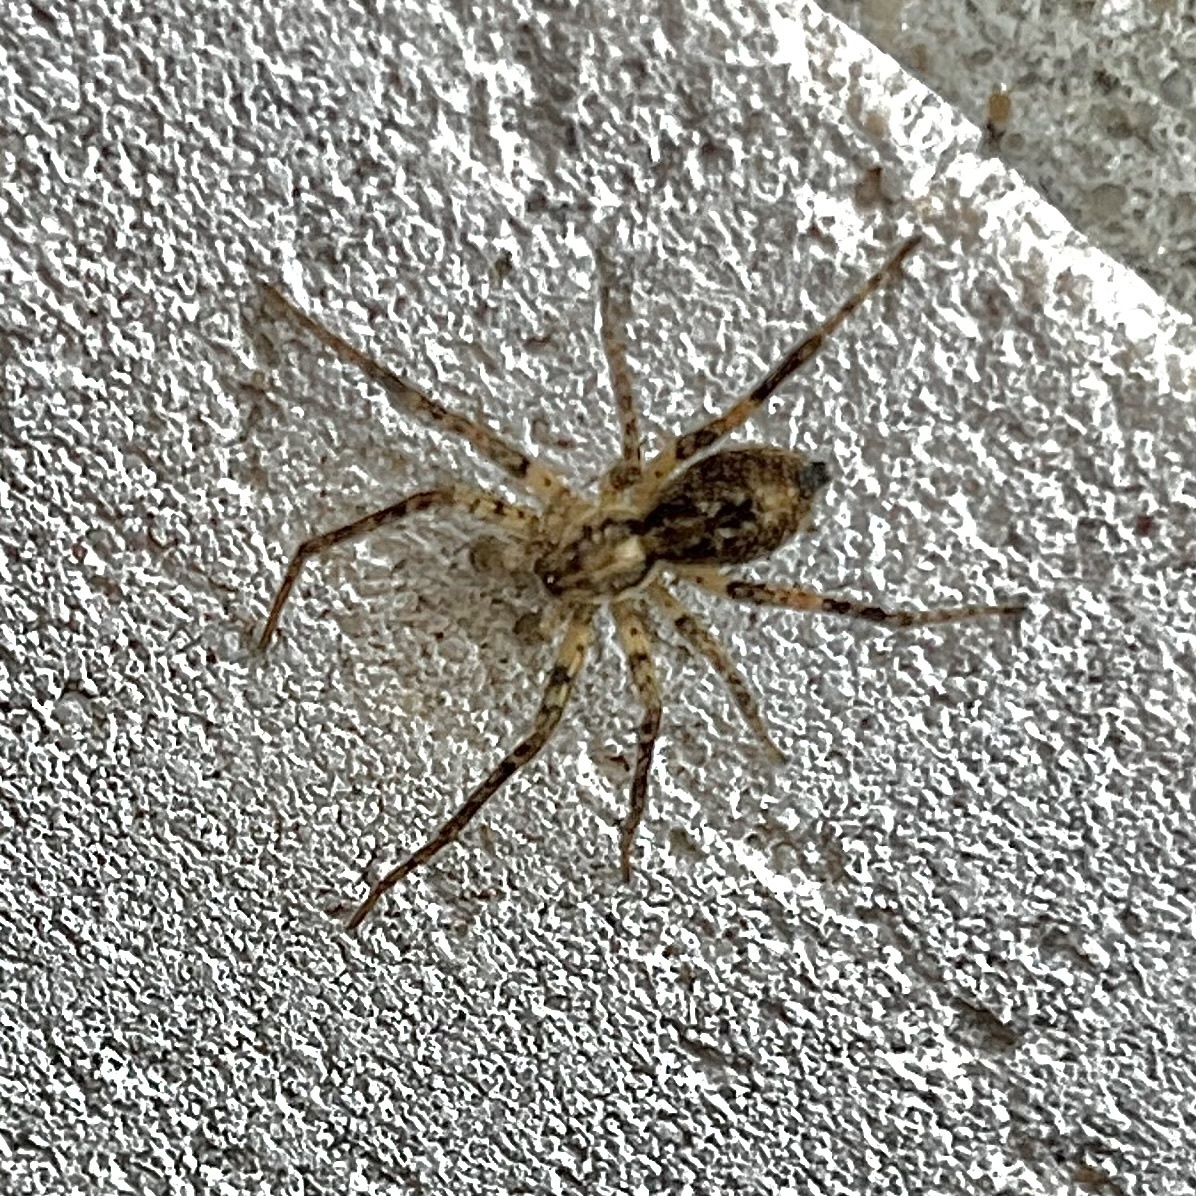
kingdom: Animalia
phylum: Arthropoda
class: Arachnida
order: Araneae
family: Anyphaenidae
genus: Anyphaena
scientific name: Anyphaena accentuata
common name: Buzzing spider
